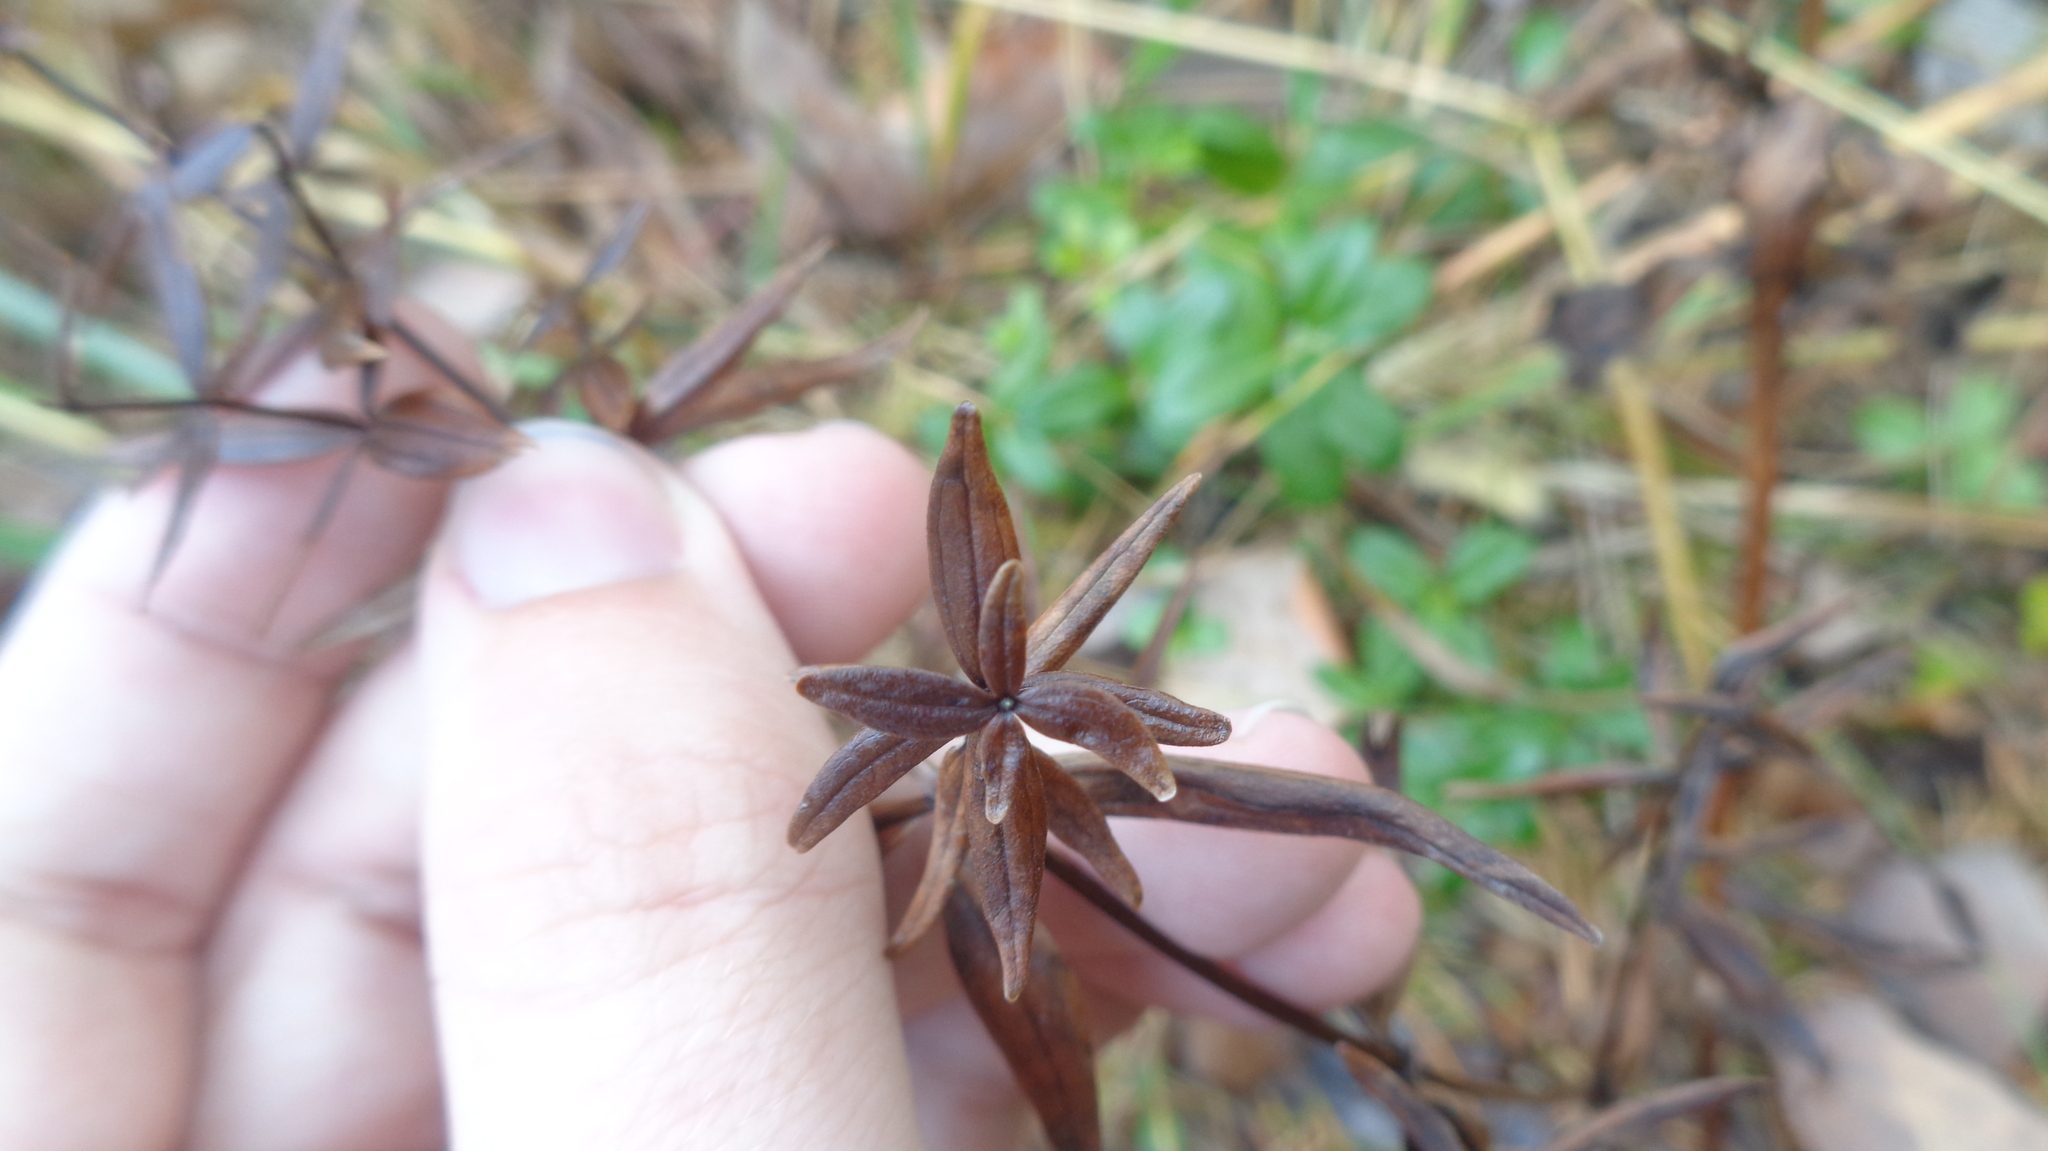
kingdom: Plantae
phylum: Tracheophyta
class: Magnoliopsida
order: Gentianales
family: Rubiaceae
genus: Galium
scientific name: Galium boreale
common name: Northern bedstraw
